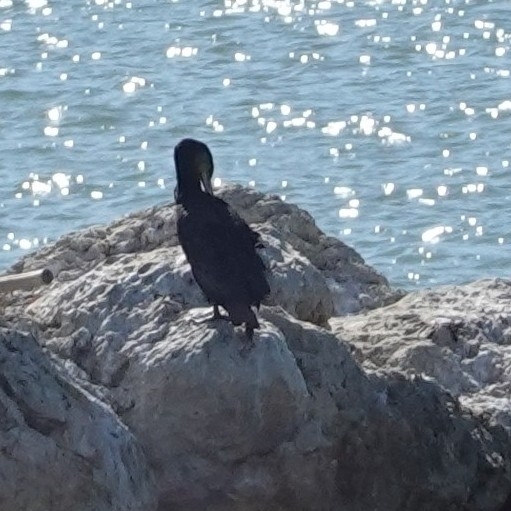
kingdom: Animalia
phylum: Chordata
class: Aves
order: Suliformes
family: Phalacrocoracidae
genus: Phalacrocorax
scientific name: Phalacrocorax carbo
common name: Great cormorant
